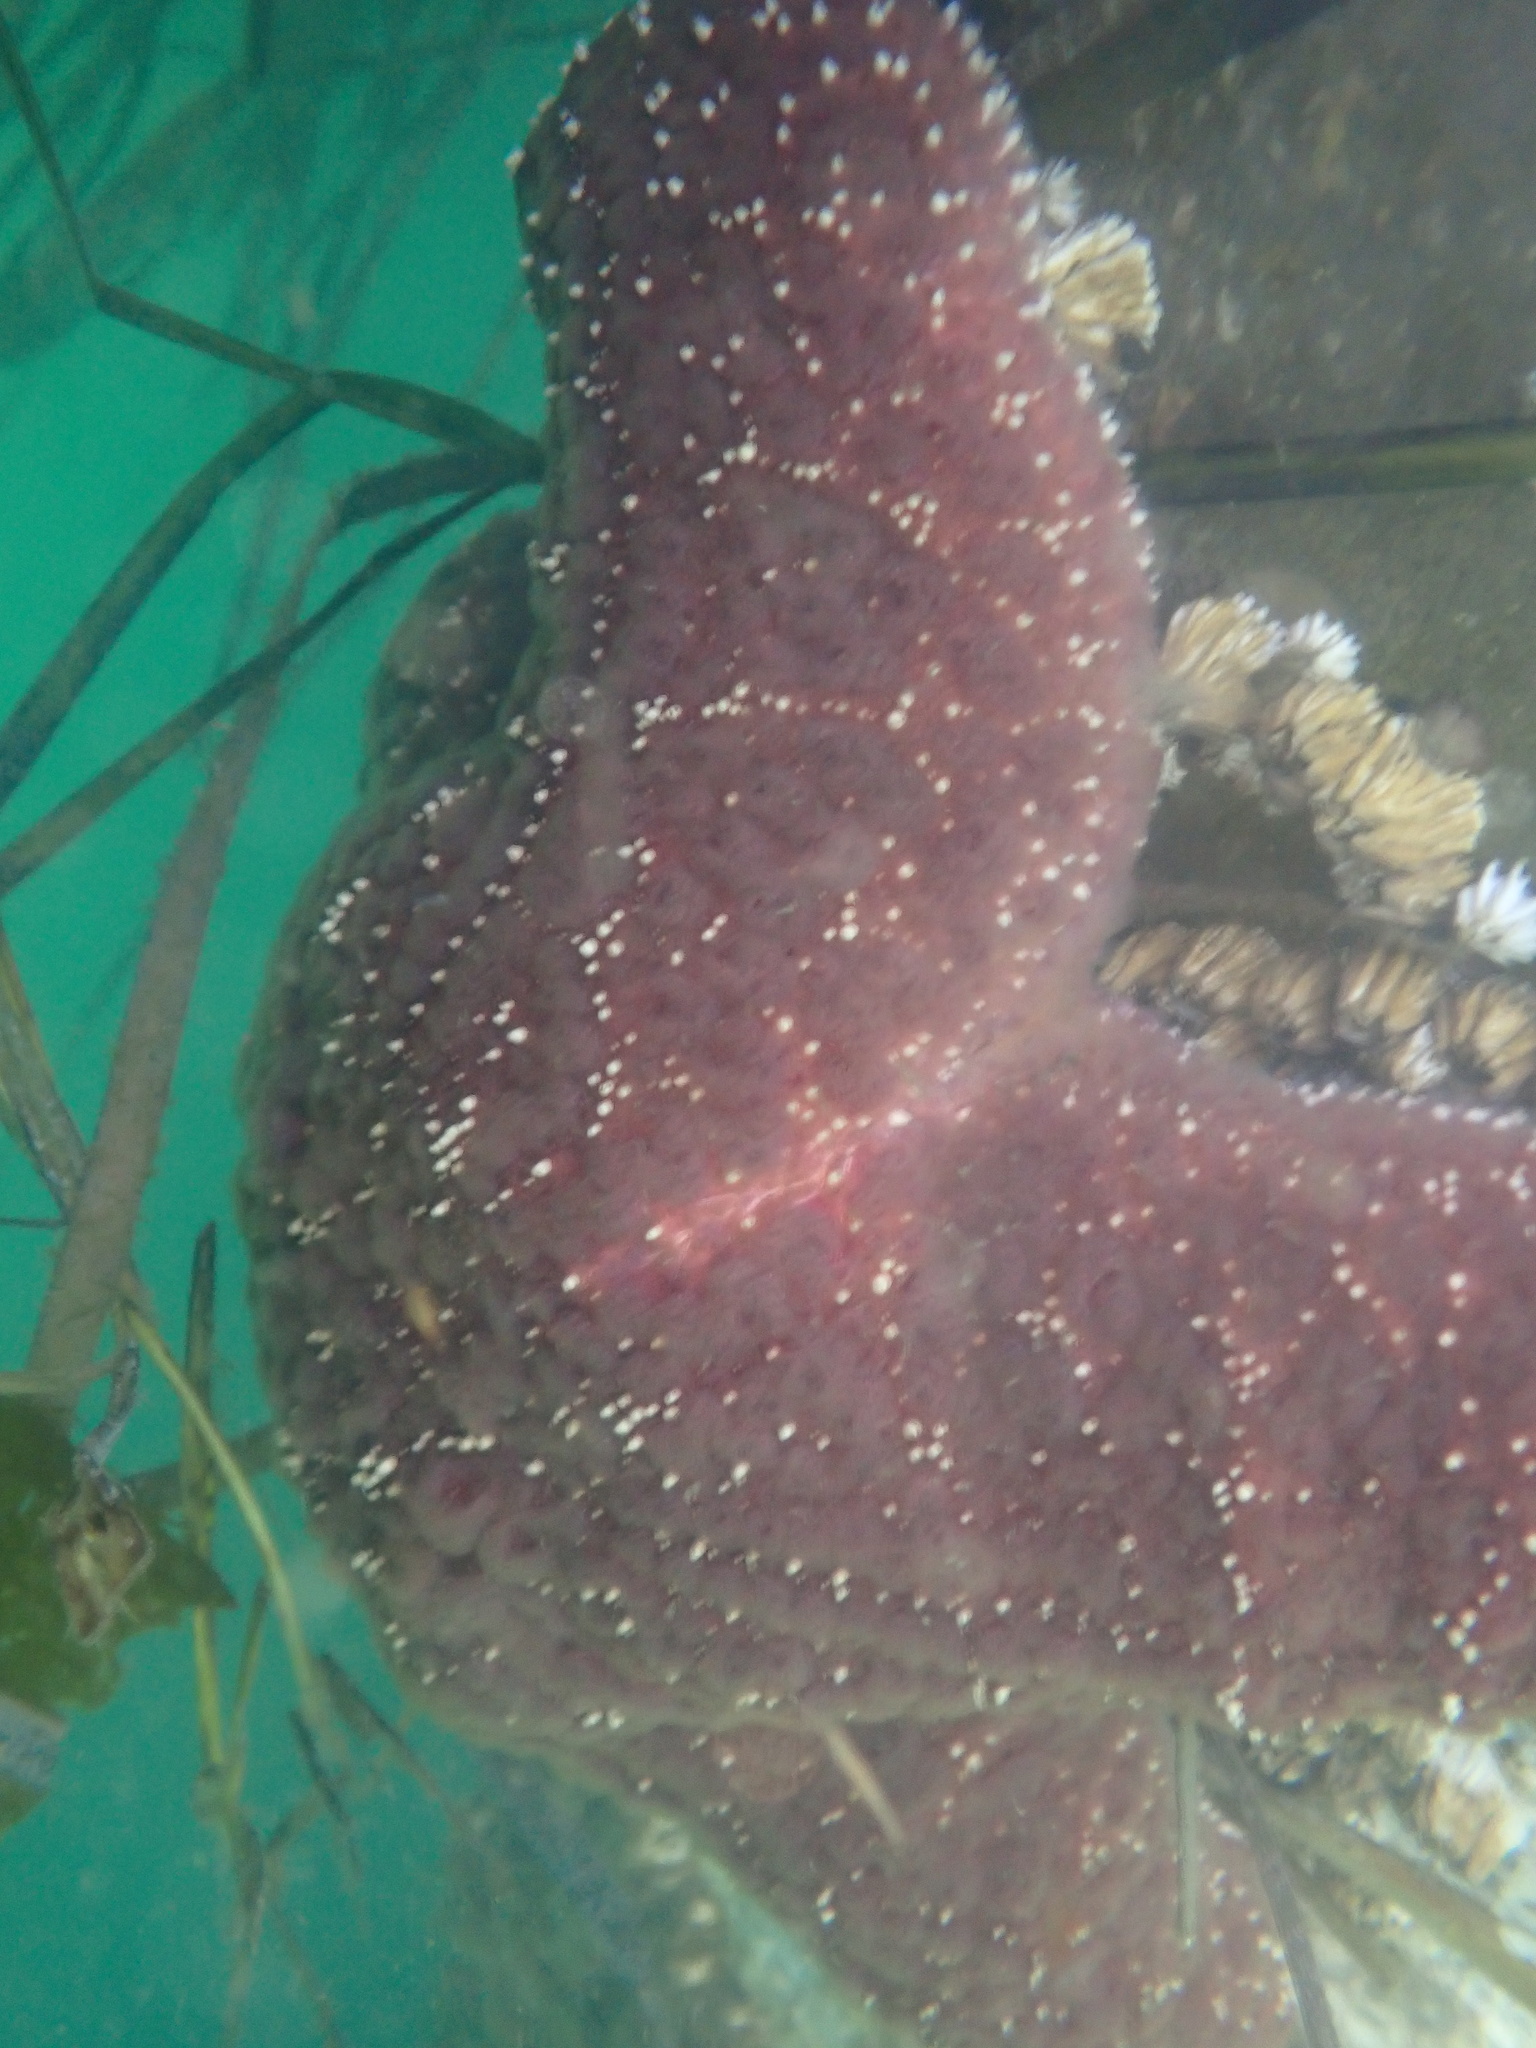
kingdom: Animalia
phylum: Echinodermata
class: Asteroidea
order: Forcipulatida
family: Asteriidae
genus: Pisaster
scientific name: Pisaster ochraceus
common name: Ochre stars
